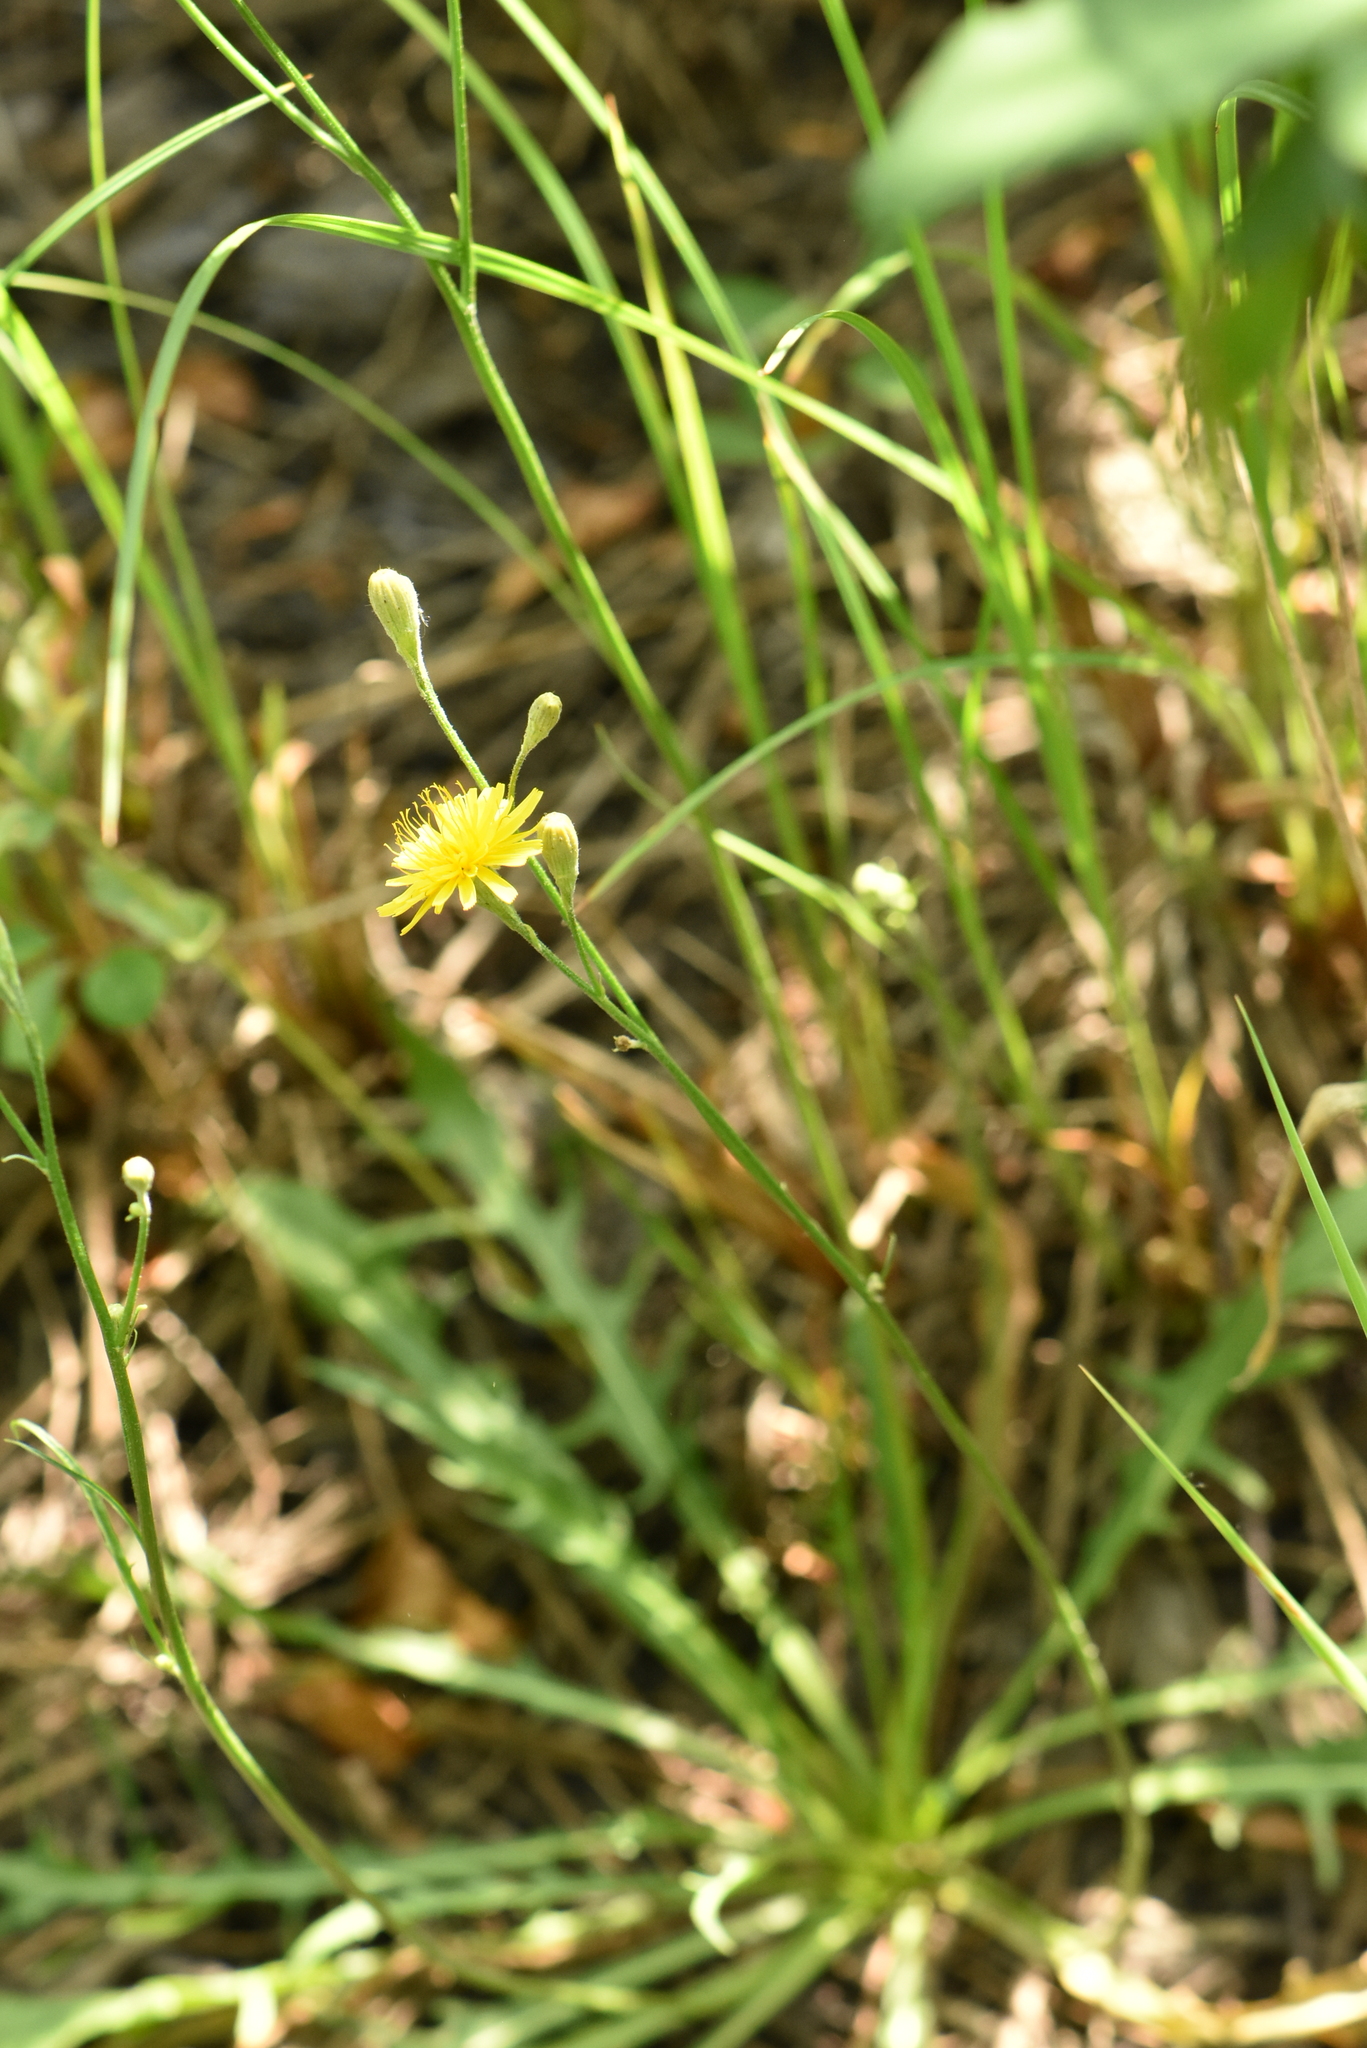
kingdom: Plantae
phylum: Tracheophyta
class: Magnoliopsida
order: Asterales
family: Asteraceae
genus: Scorzoneroides
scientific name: Scorzoneroides autumnalis
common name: Autumn hawkbit
